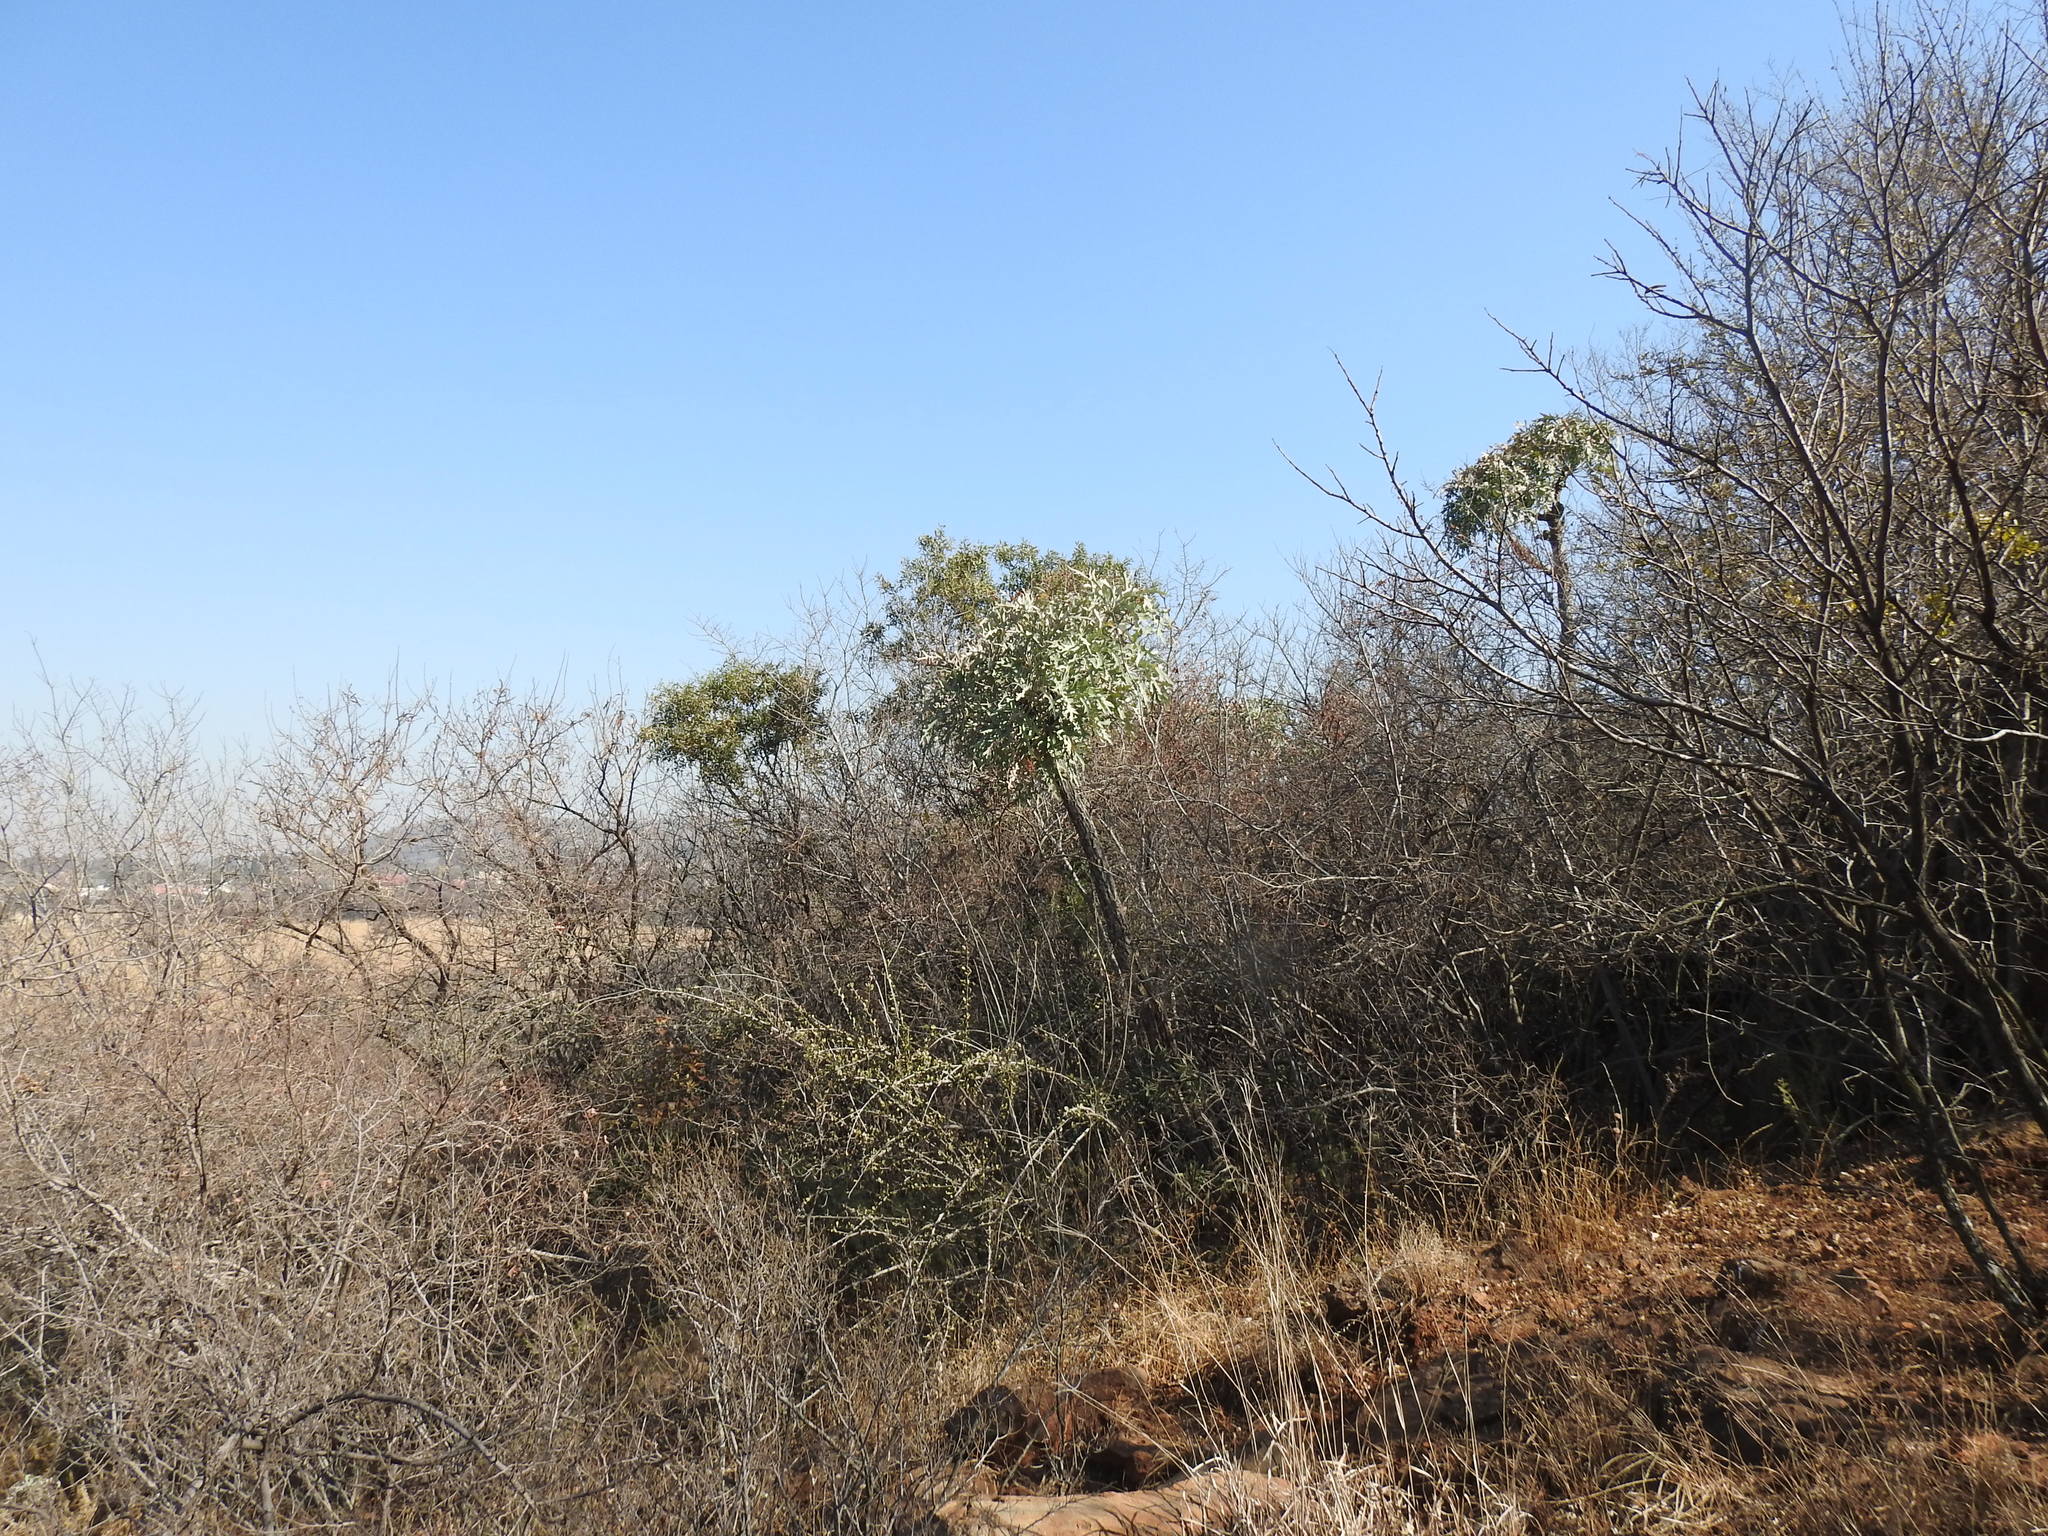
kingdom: Plantae
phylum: Tracheophyta
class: Magnoliopsida
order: Apiales
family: Araliaceae
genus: Cussonia
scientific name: Cussonia paniculata
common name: Cabbagetree
